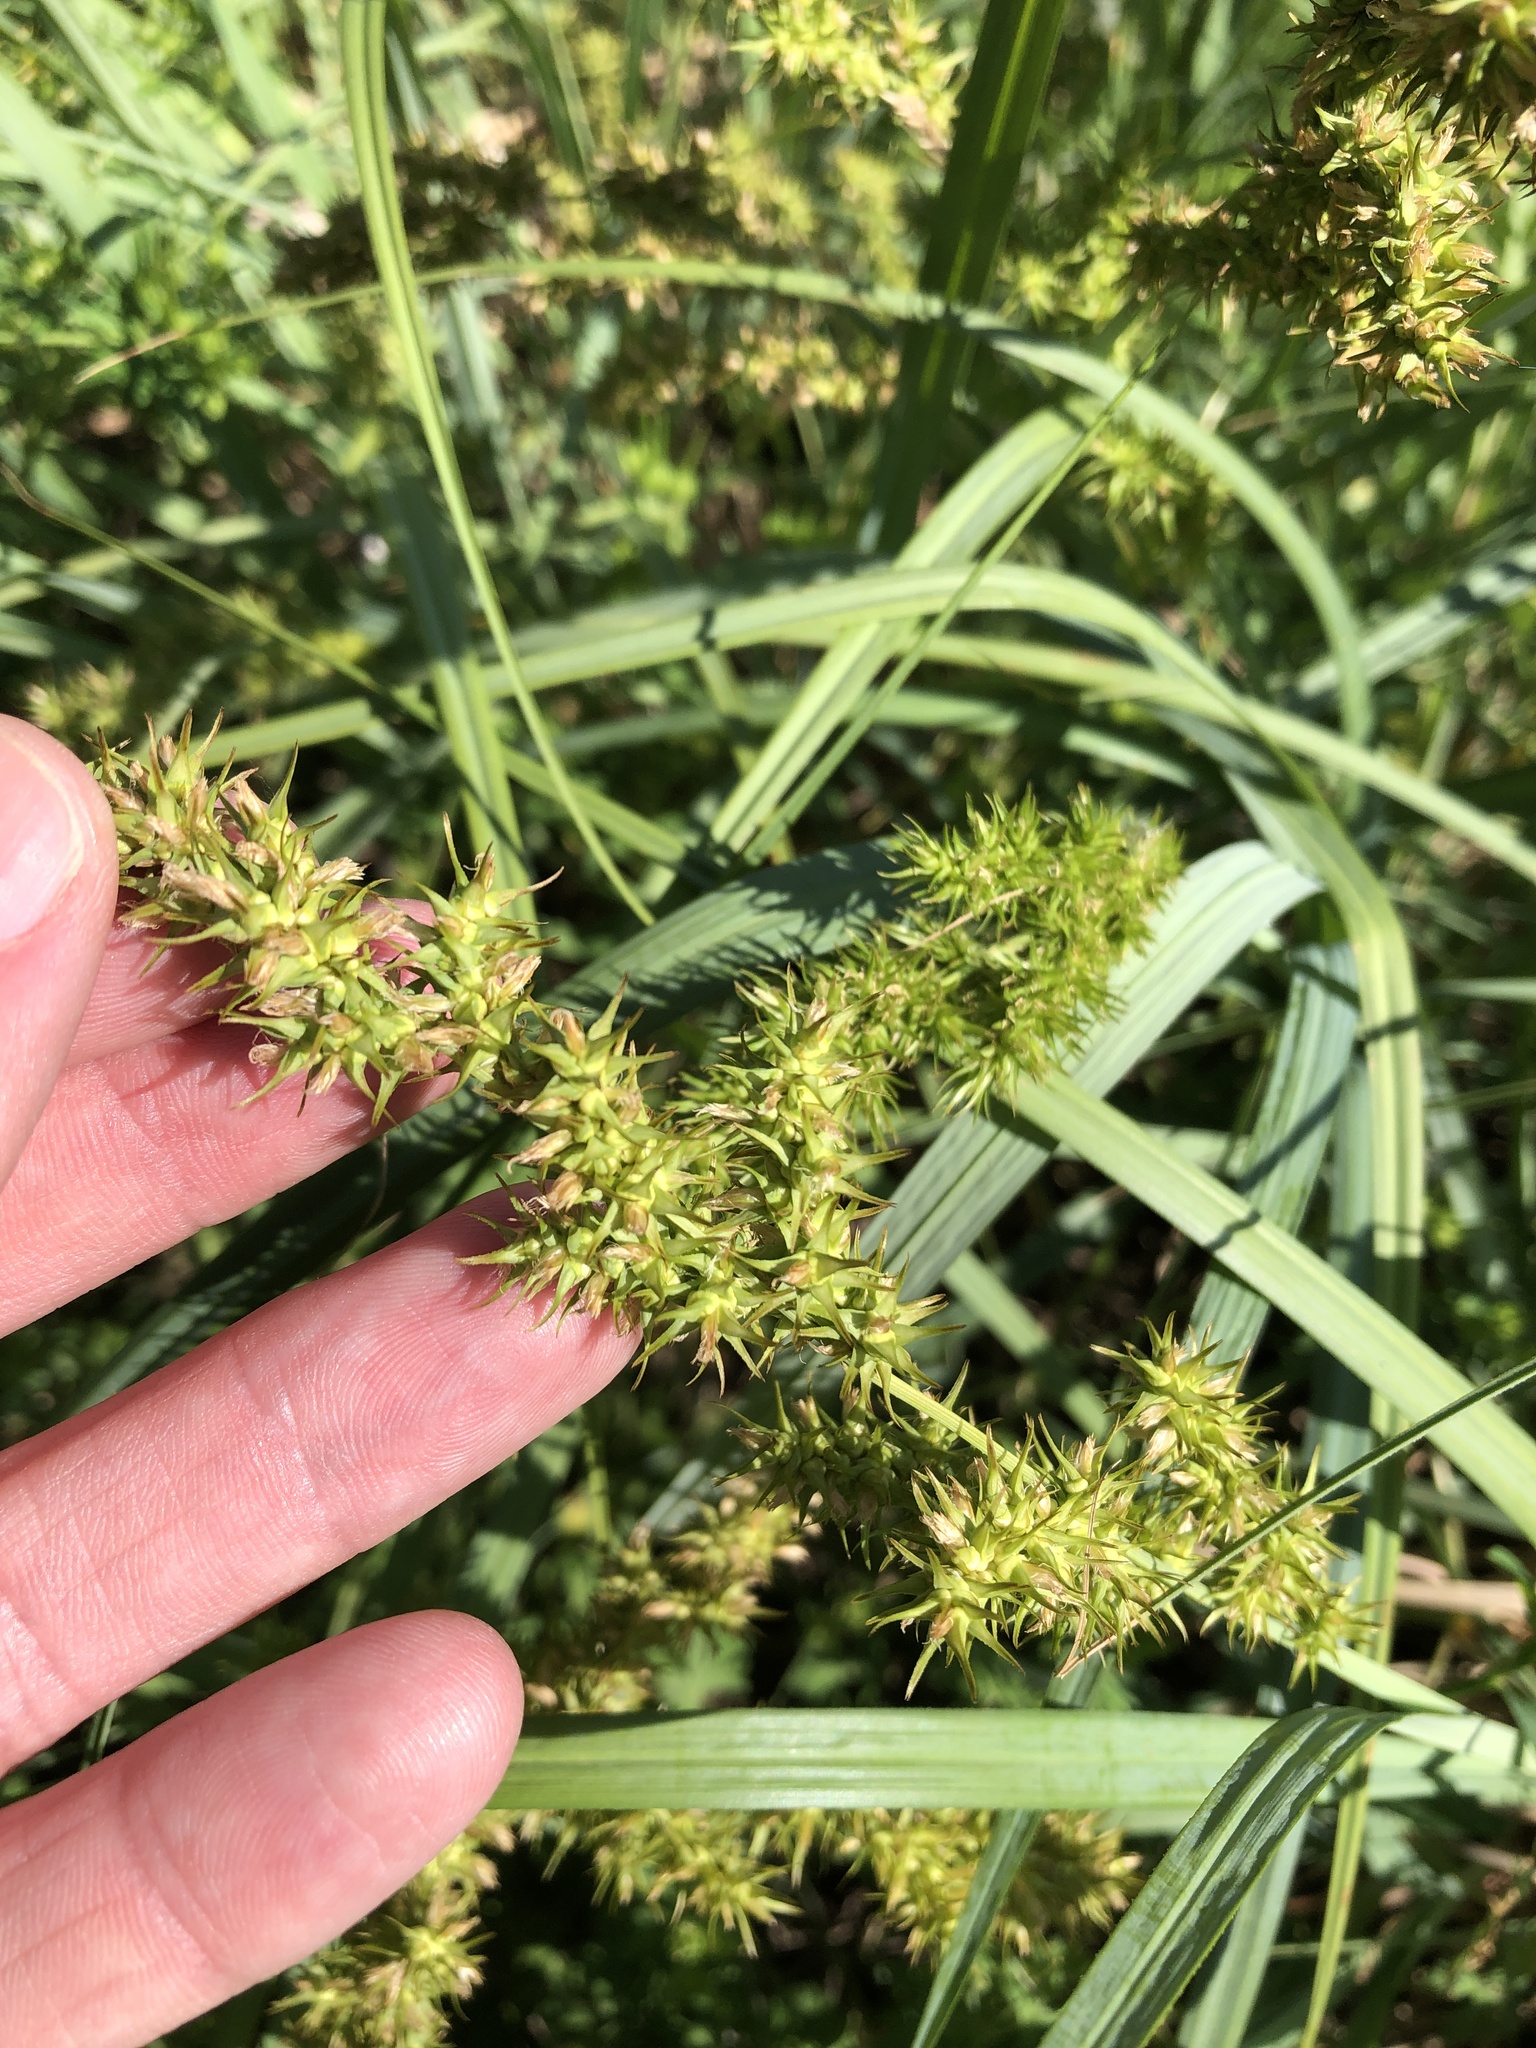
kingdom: Plantae
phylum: Tracheophyta
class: Liliopsida
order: Poales
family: Cyperaceae
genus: Carex
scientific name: Carex crus-corvi
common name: Crow-spur sedge
